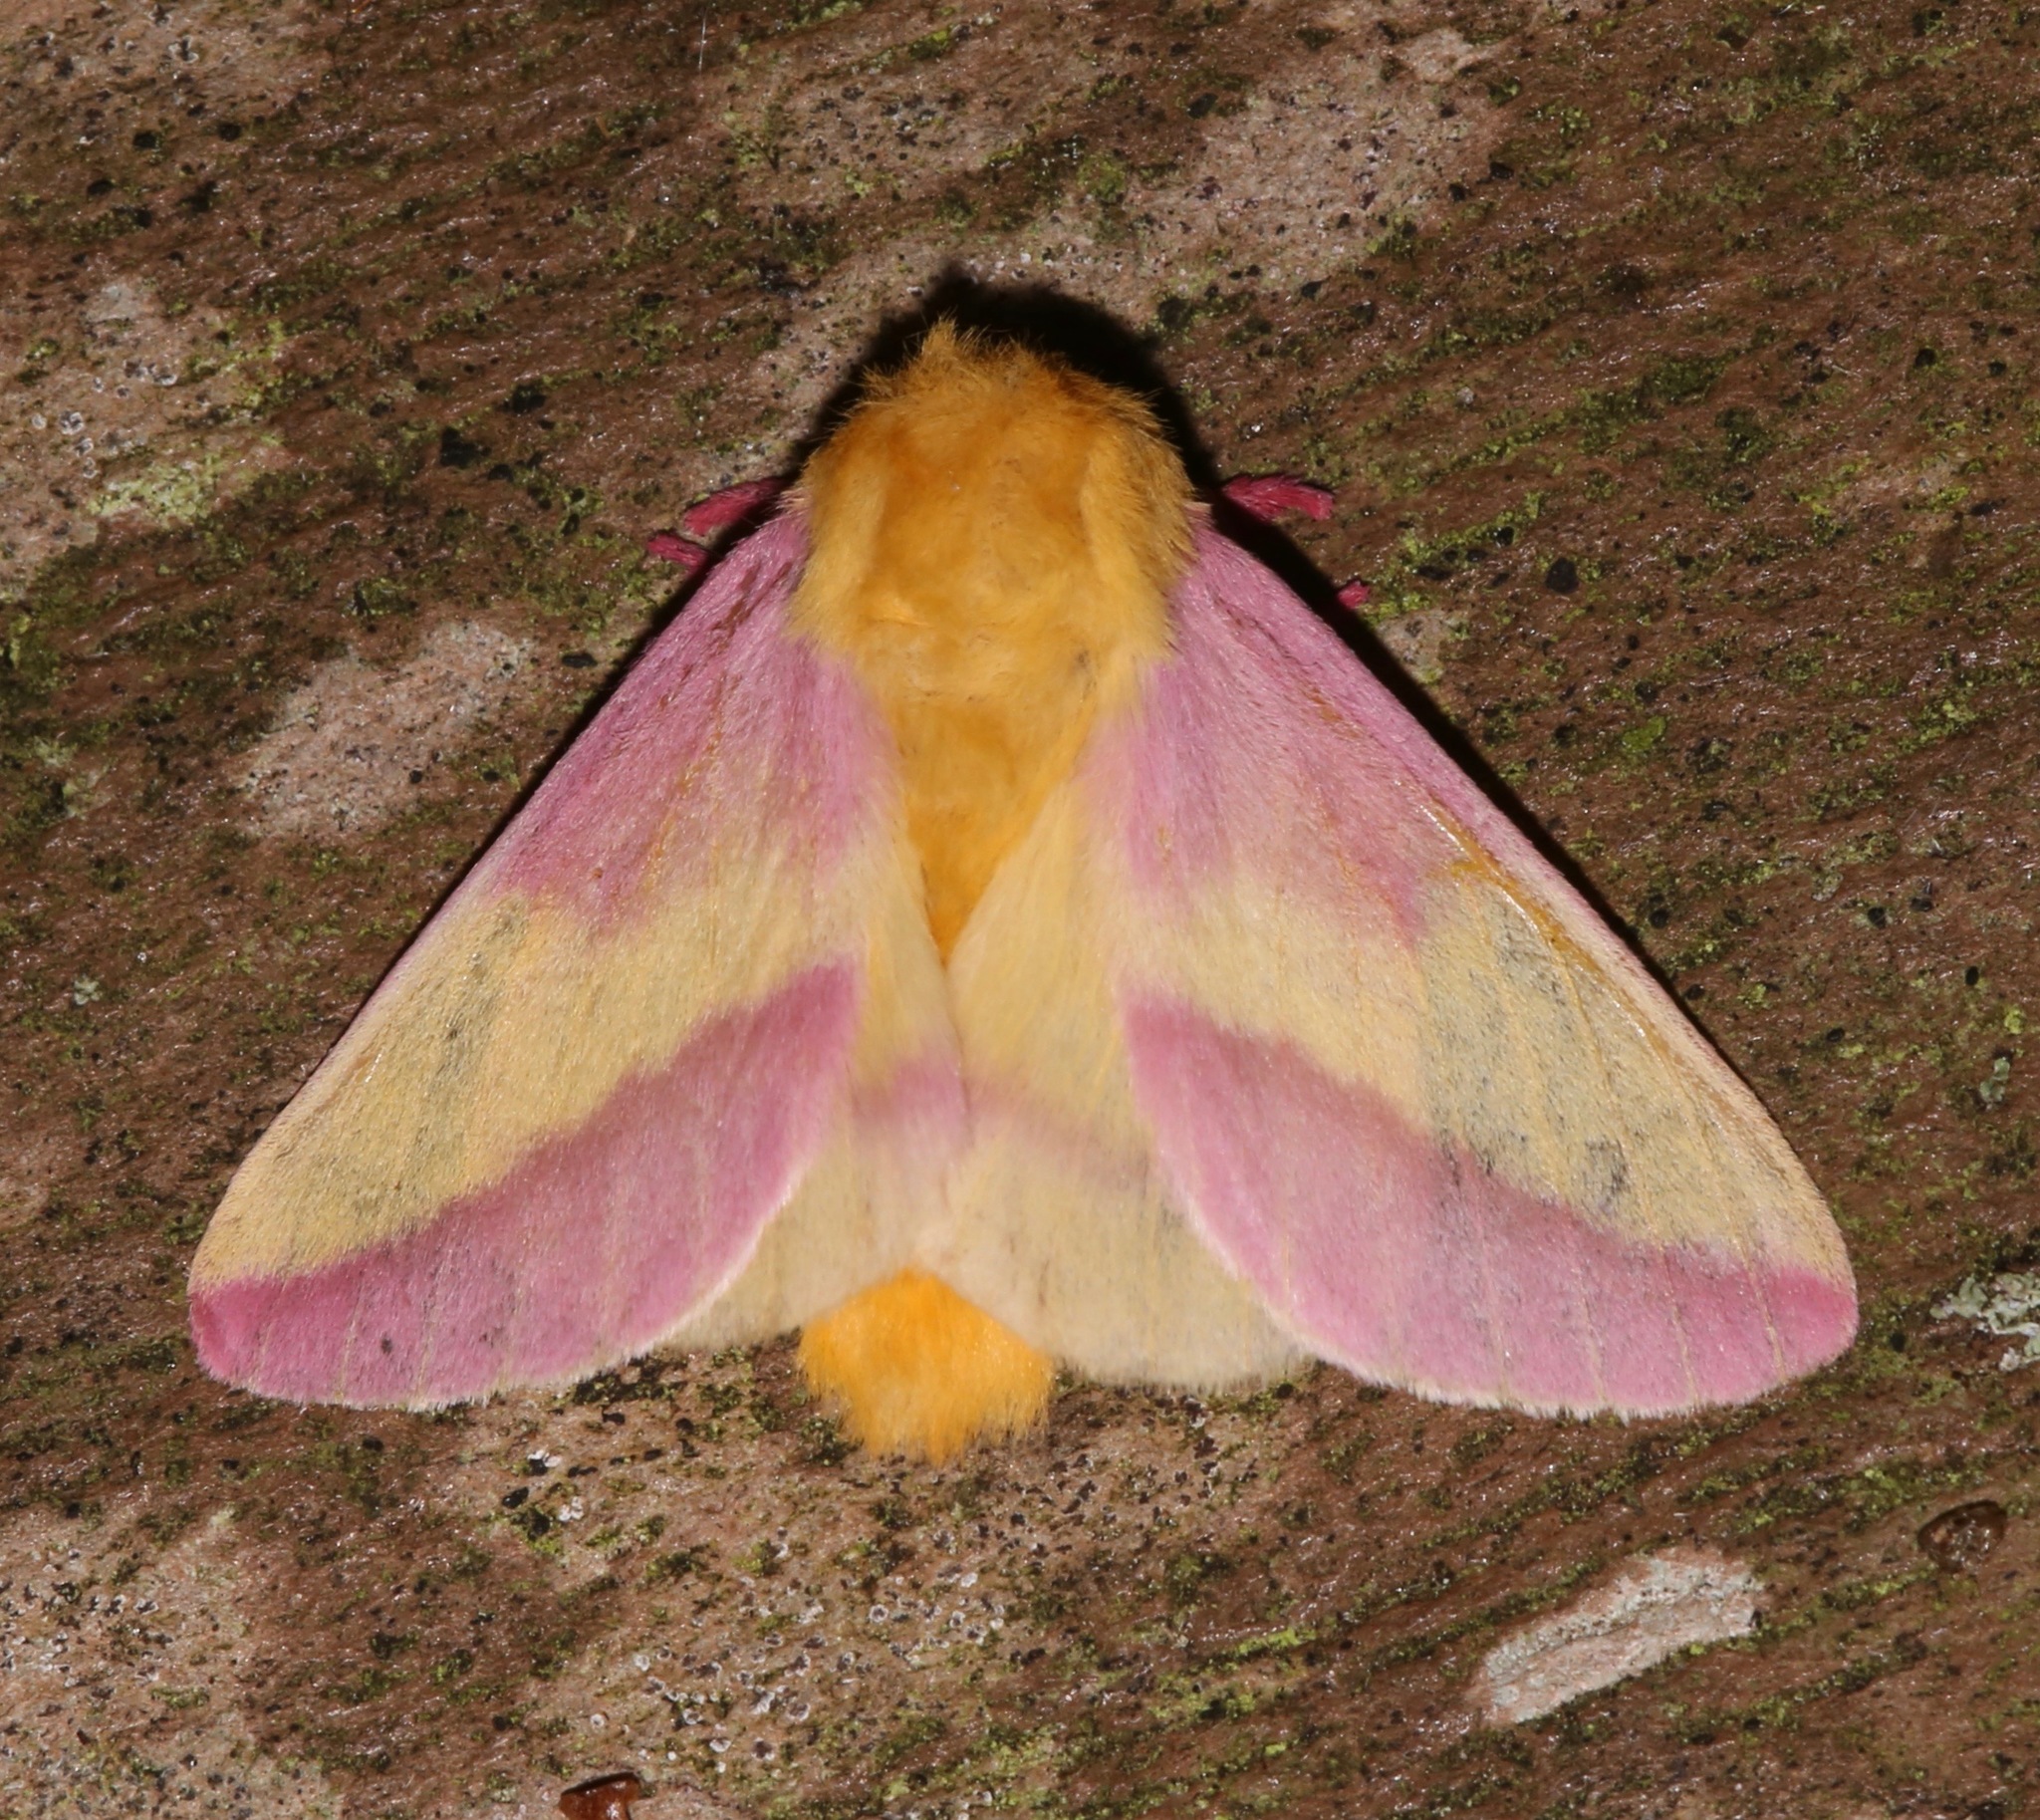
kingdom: Animalia
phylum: Arthropoda
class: Insecta
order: Lepidoptera
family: Saturniidae
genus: Dryocampa
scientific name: Dryocampa rubicunda
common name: Rosy maple moth
